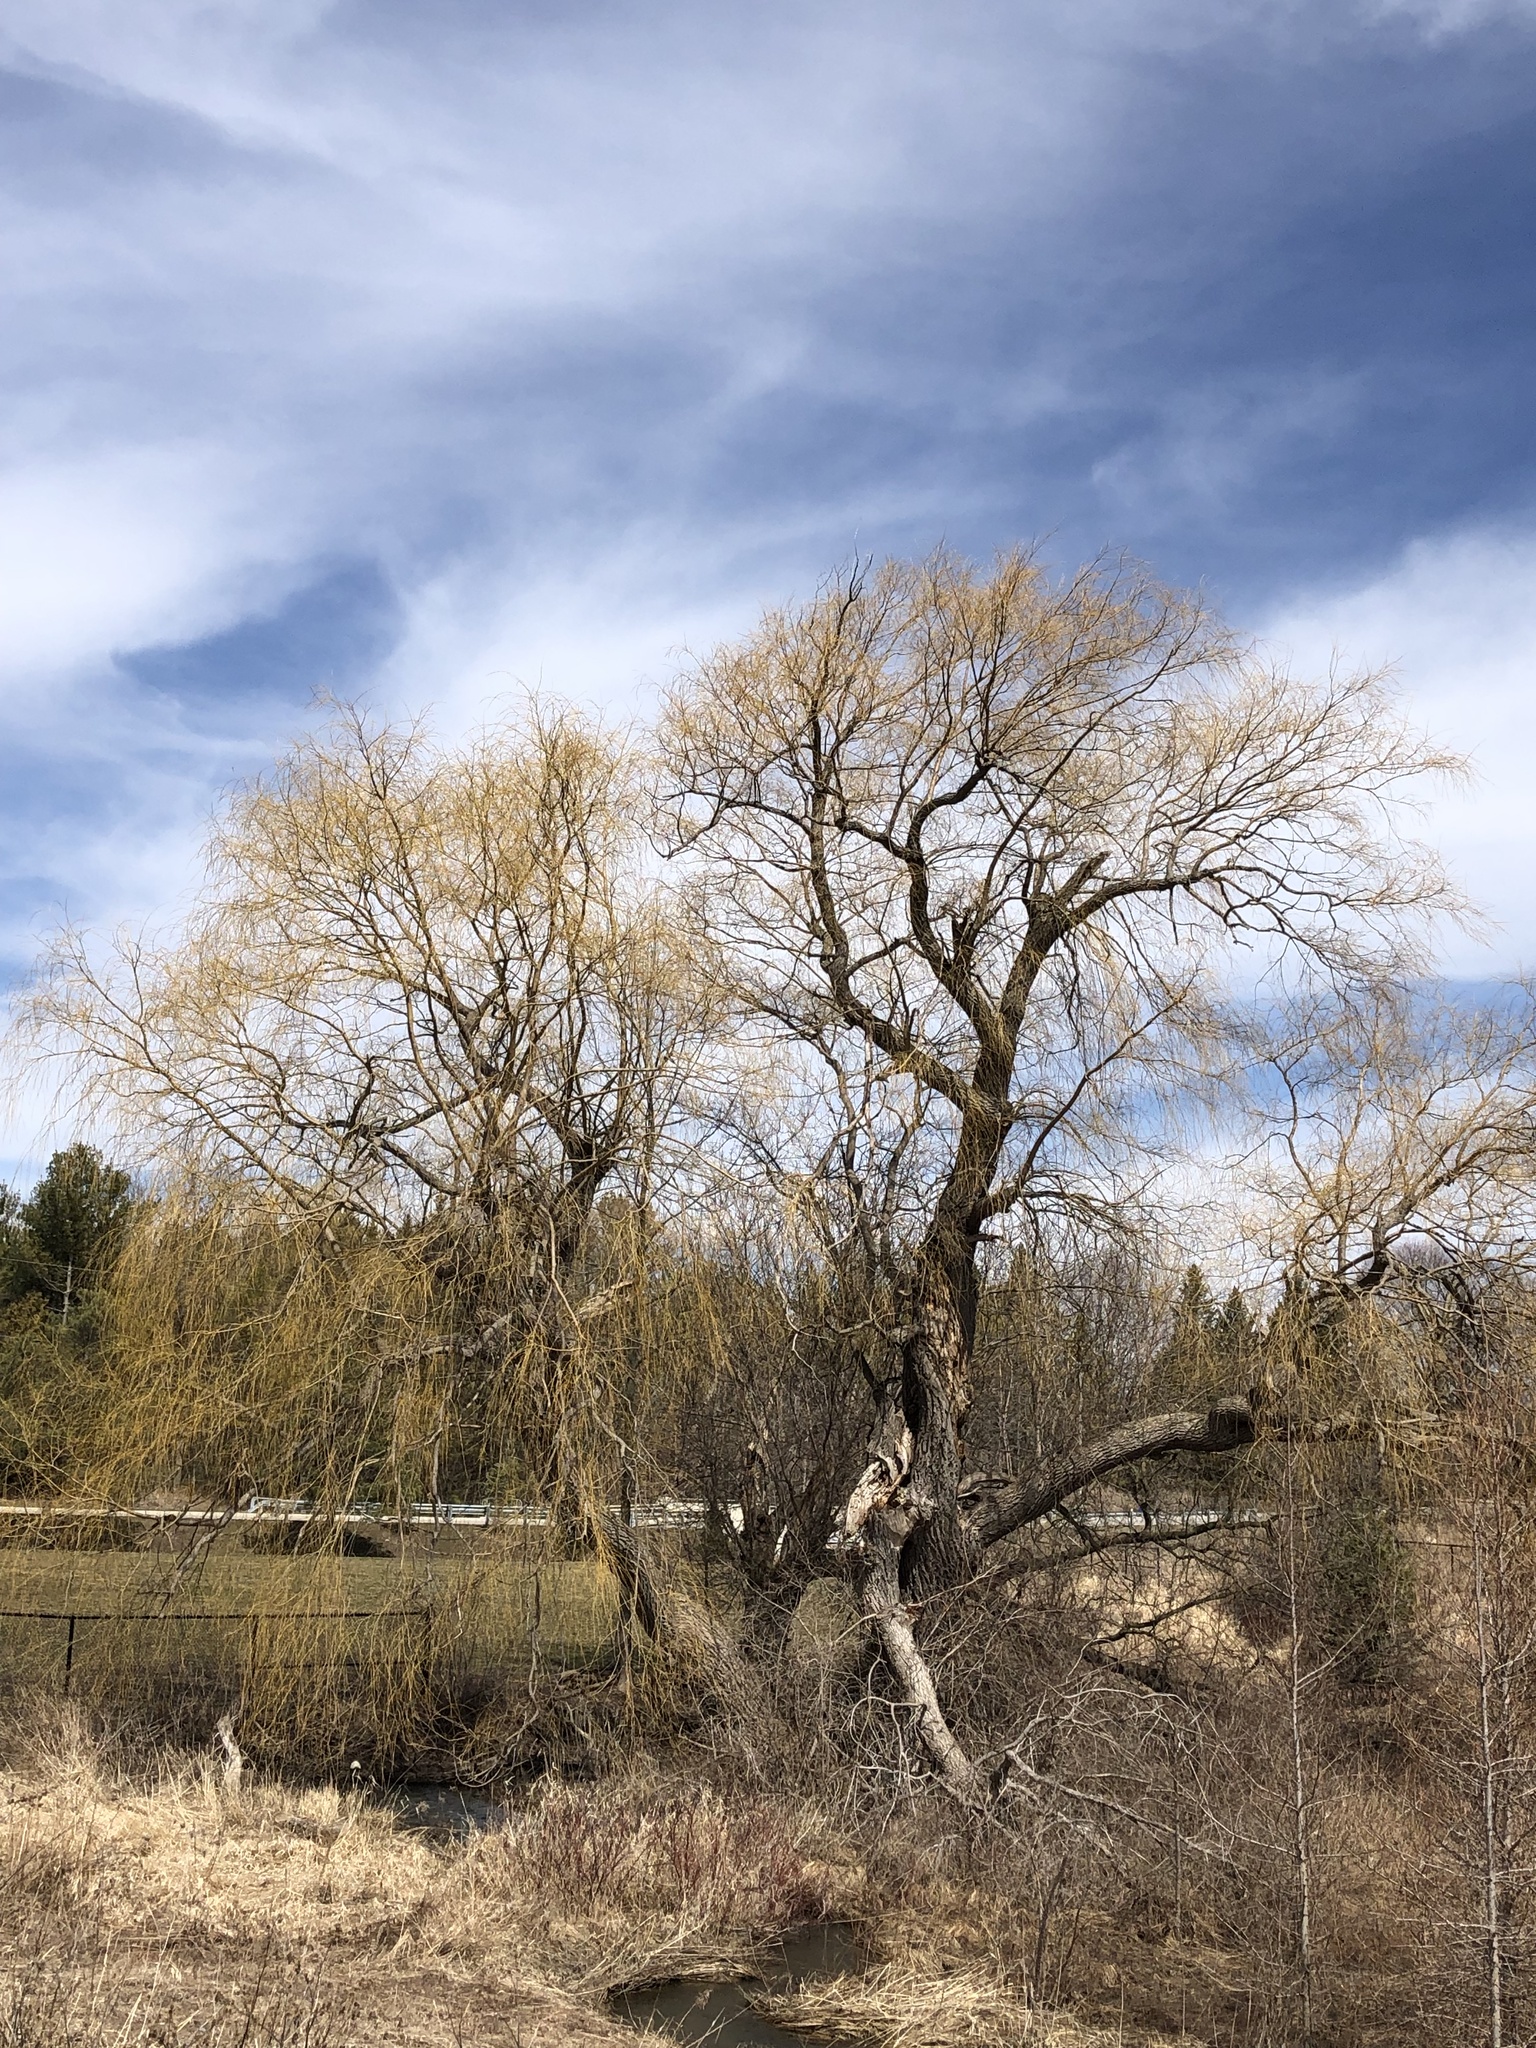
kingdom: Plantae
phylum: Tracheophyta
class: Magnoliopsida
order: Malpighiales
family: Salicaceae
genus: Salix
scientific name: Salix pendulina
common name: Wisconsin weeping willow
